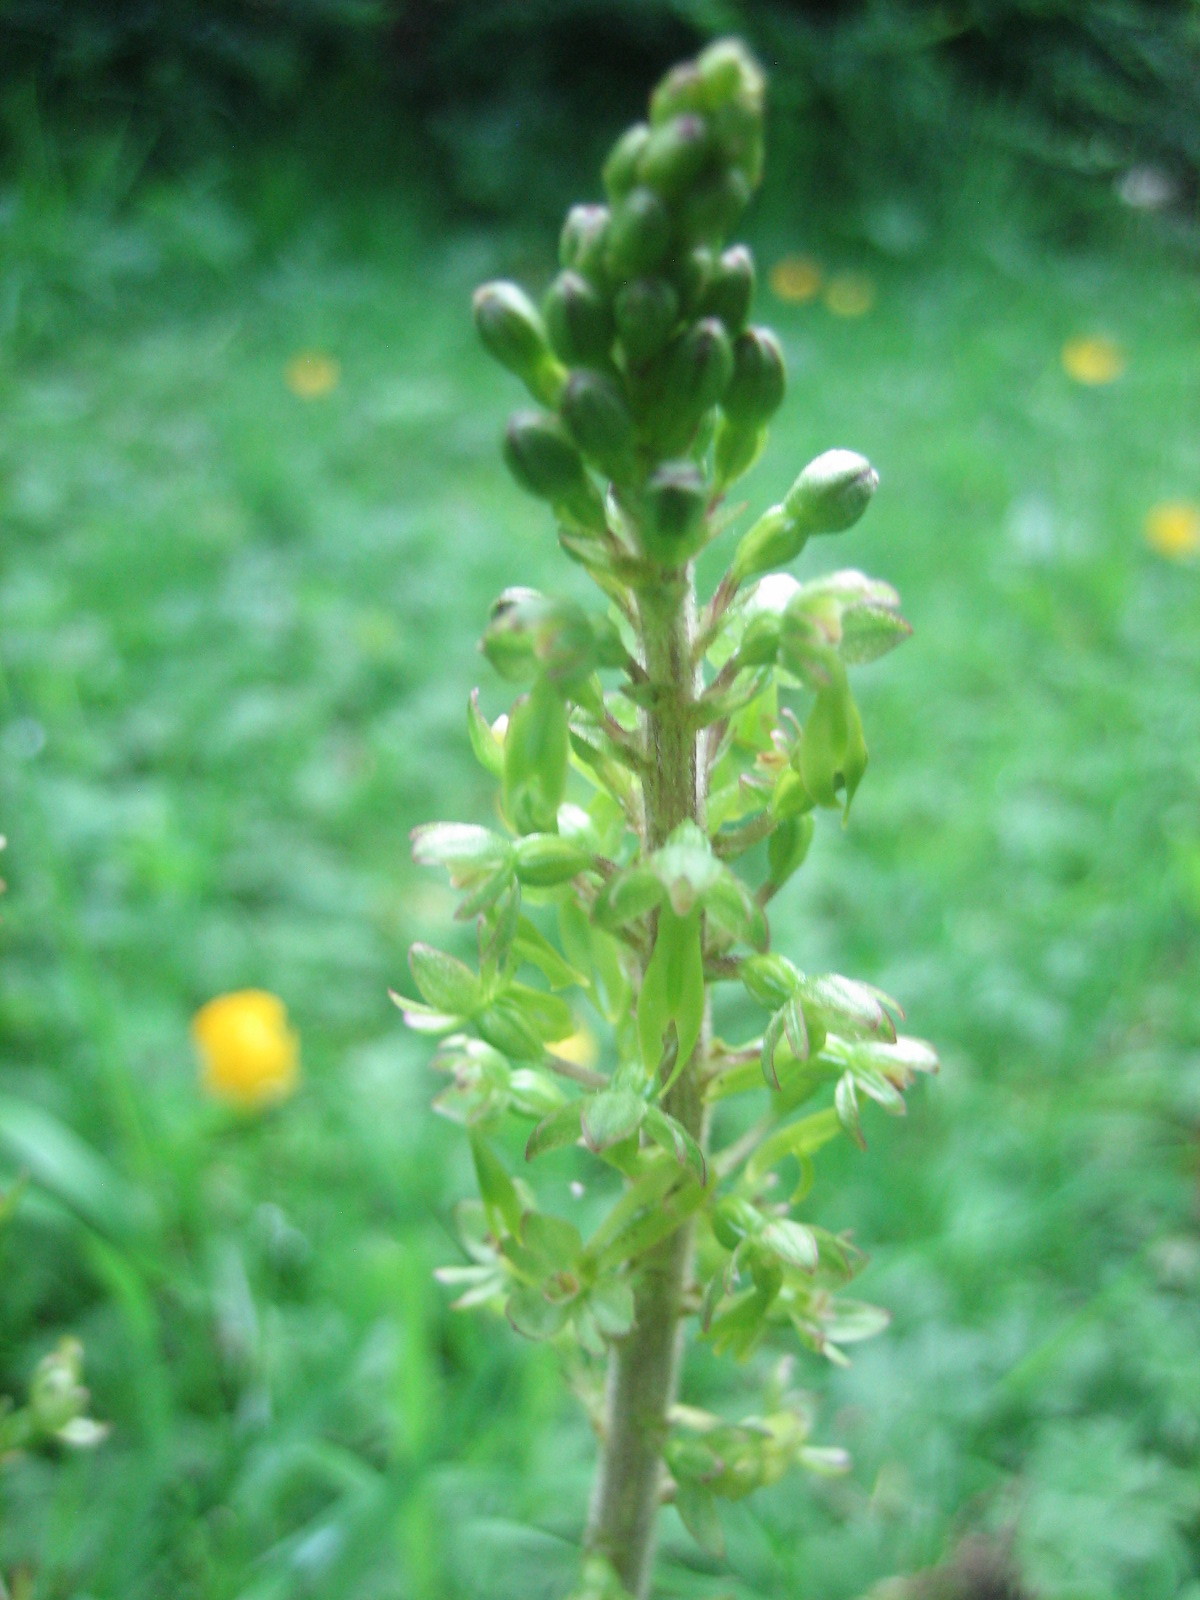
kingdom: Plantae
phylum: Tracheophyta
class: Liliopsida
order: Asparagales
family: Orchidaceae
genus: Neottia
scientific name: Neottia ovata
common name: Common twayblade
